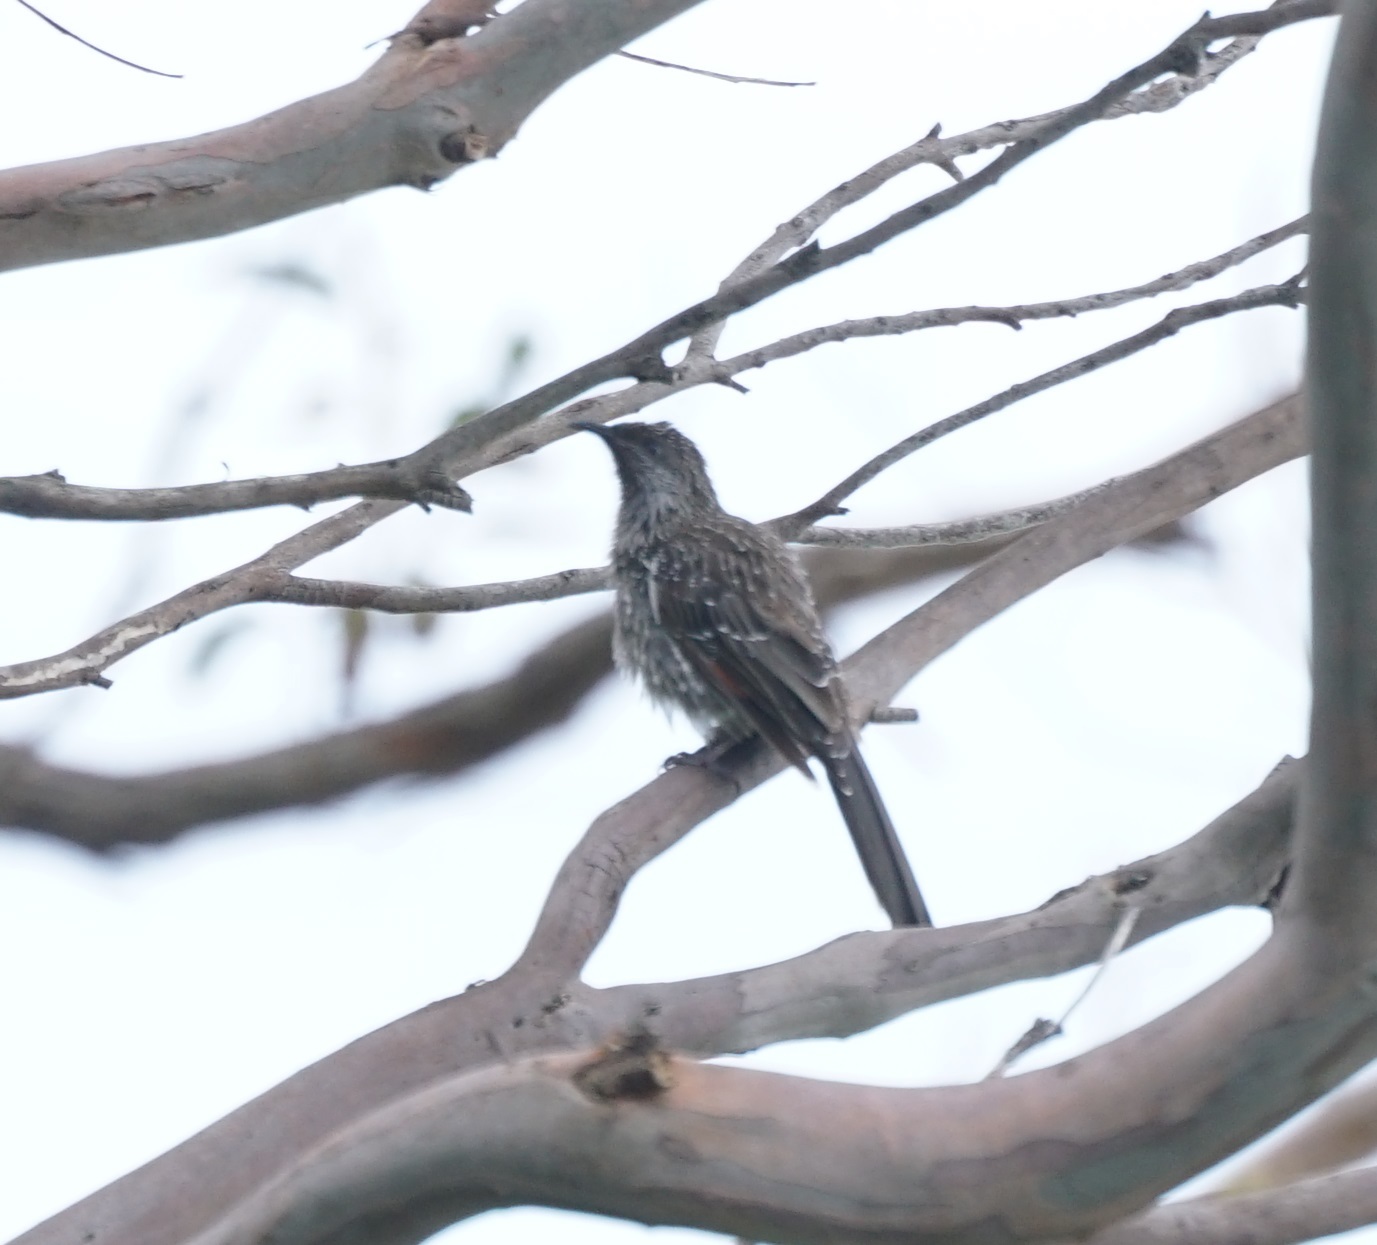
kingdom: Animalia
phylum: Chordata
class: Aves
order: Passeriformes
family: Meliphagidae
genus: Anthochaera
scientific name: Anthochaera chrysoptera
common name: Little wattlebird
